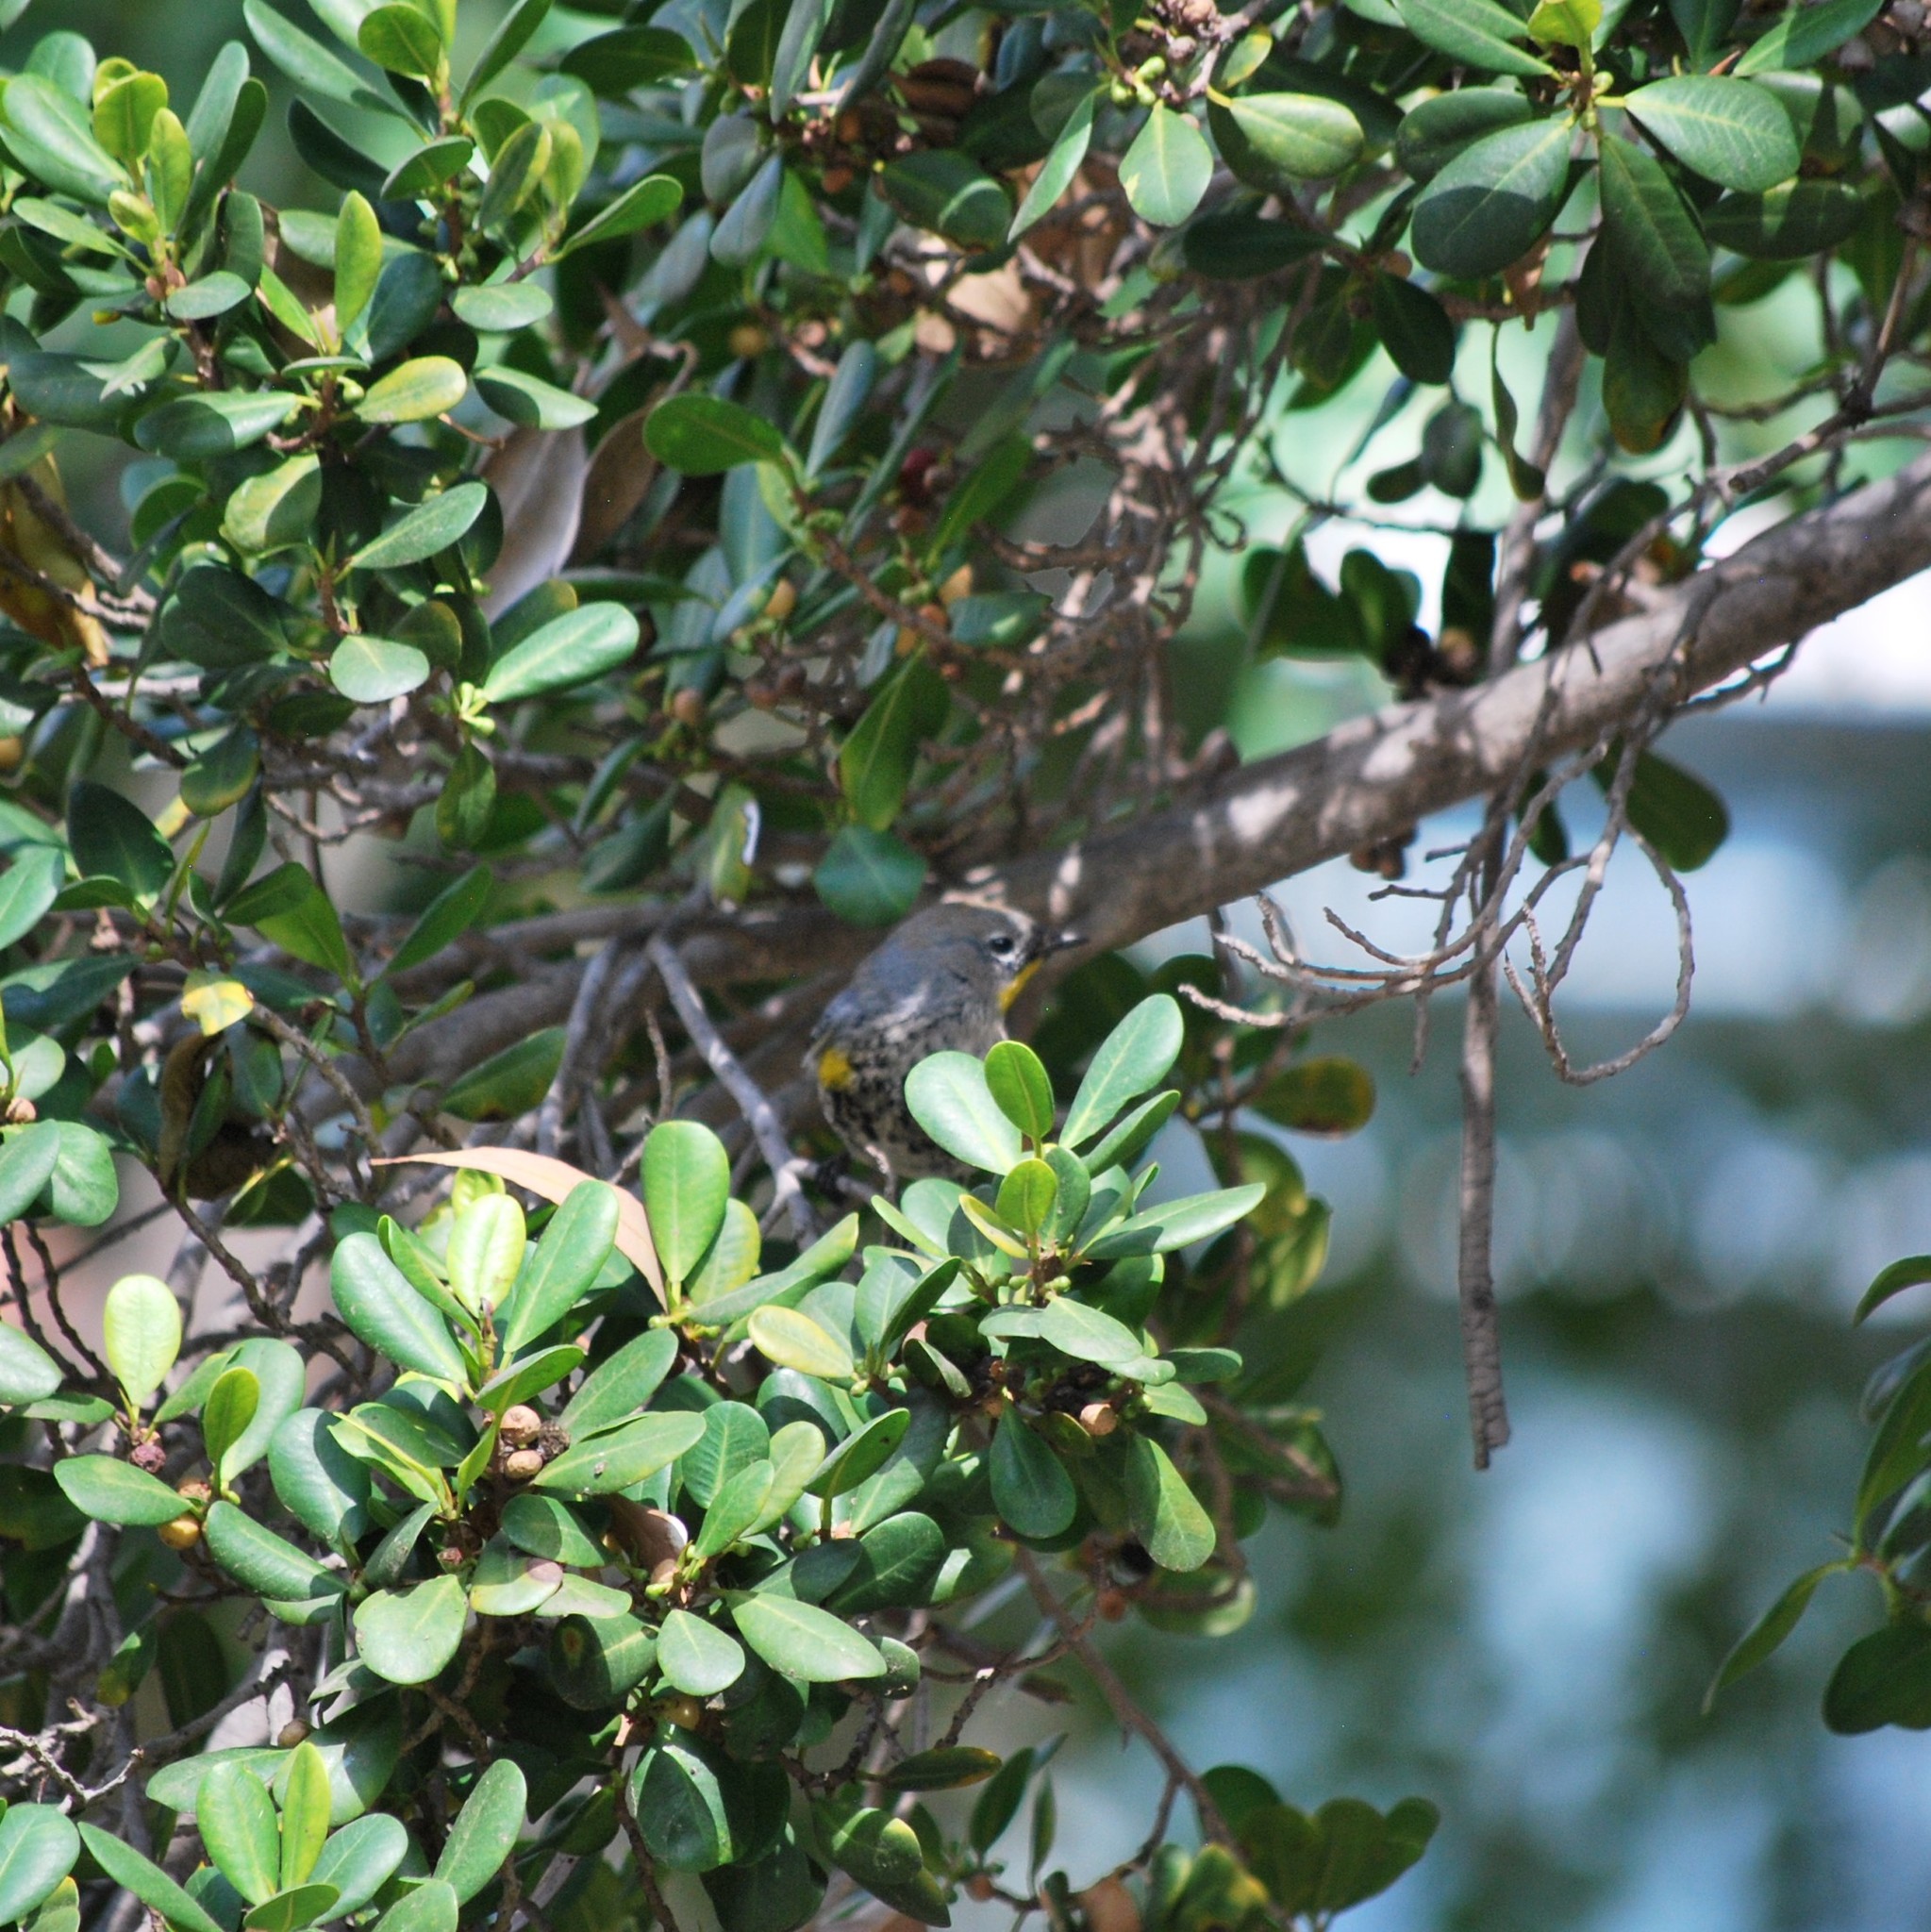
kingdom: Animalia
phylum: Chordata
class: Aves
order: Passeriformes
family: Parulidae
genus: Setophaga
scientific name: Setophaga auduboni
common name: Audubon's warbler
